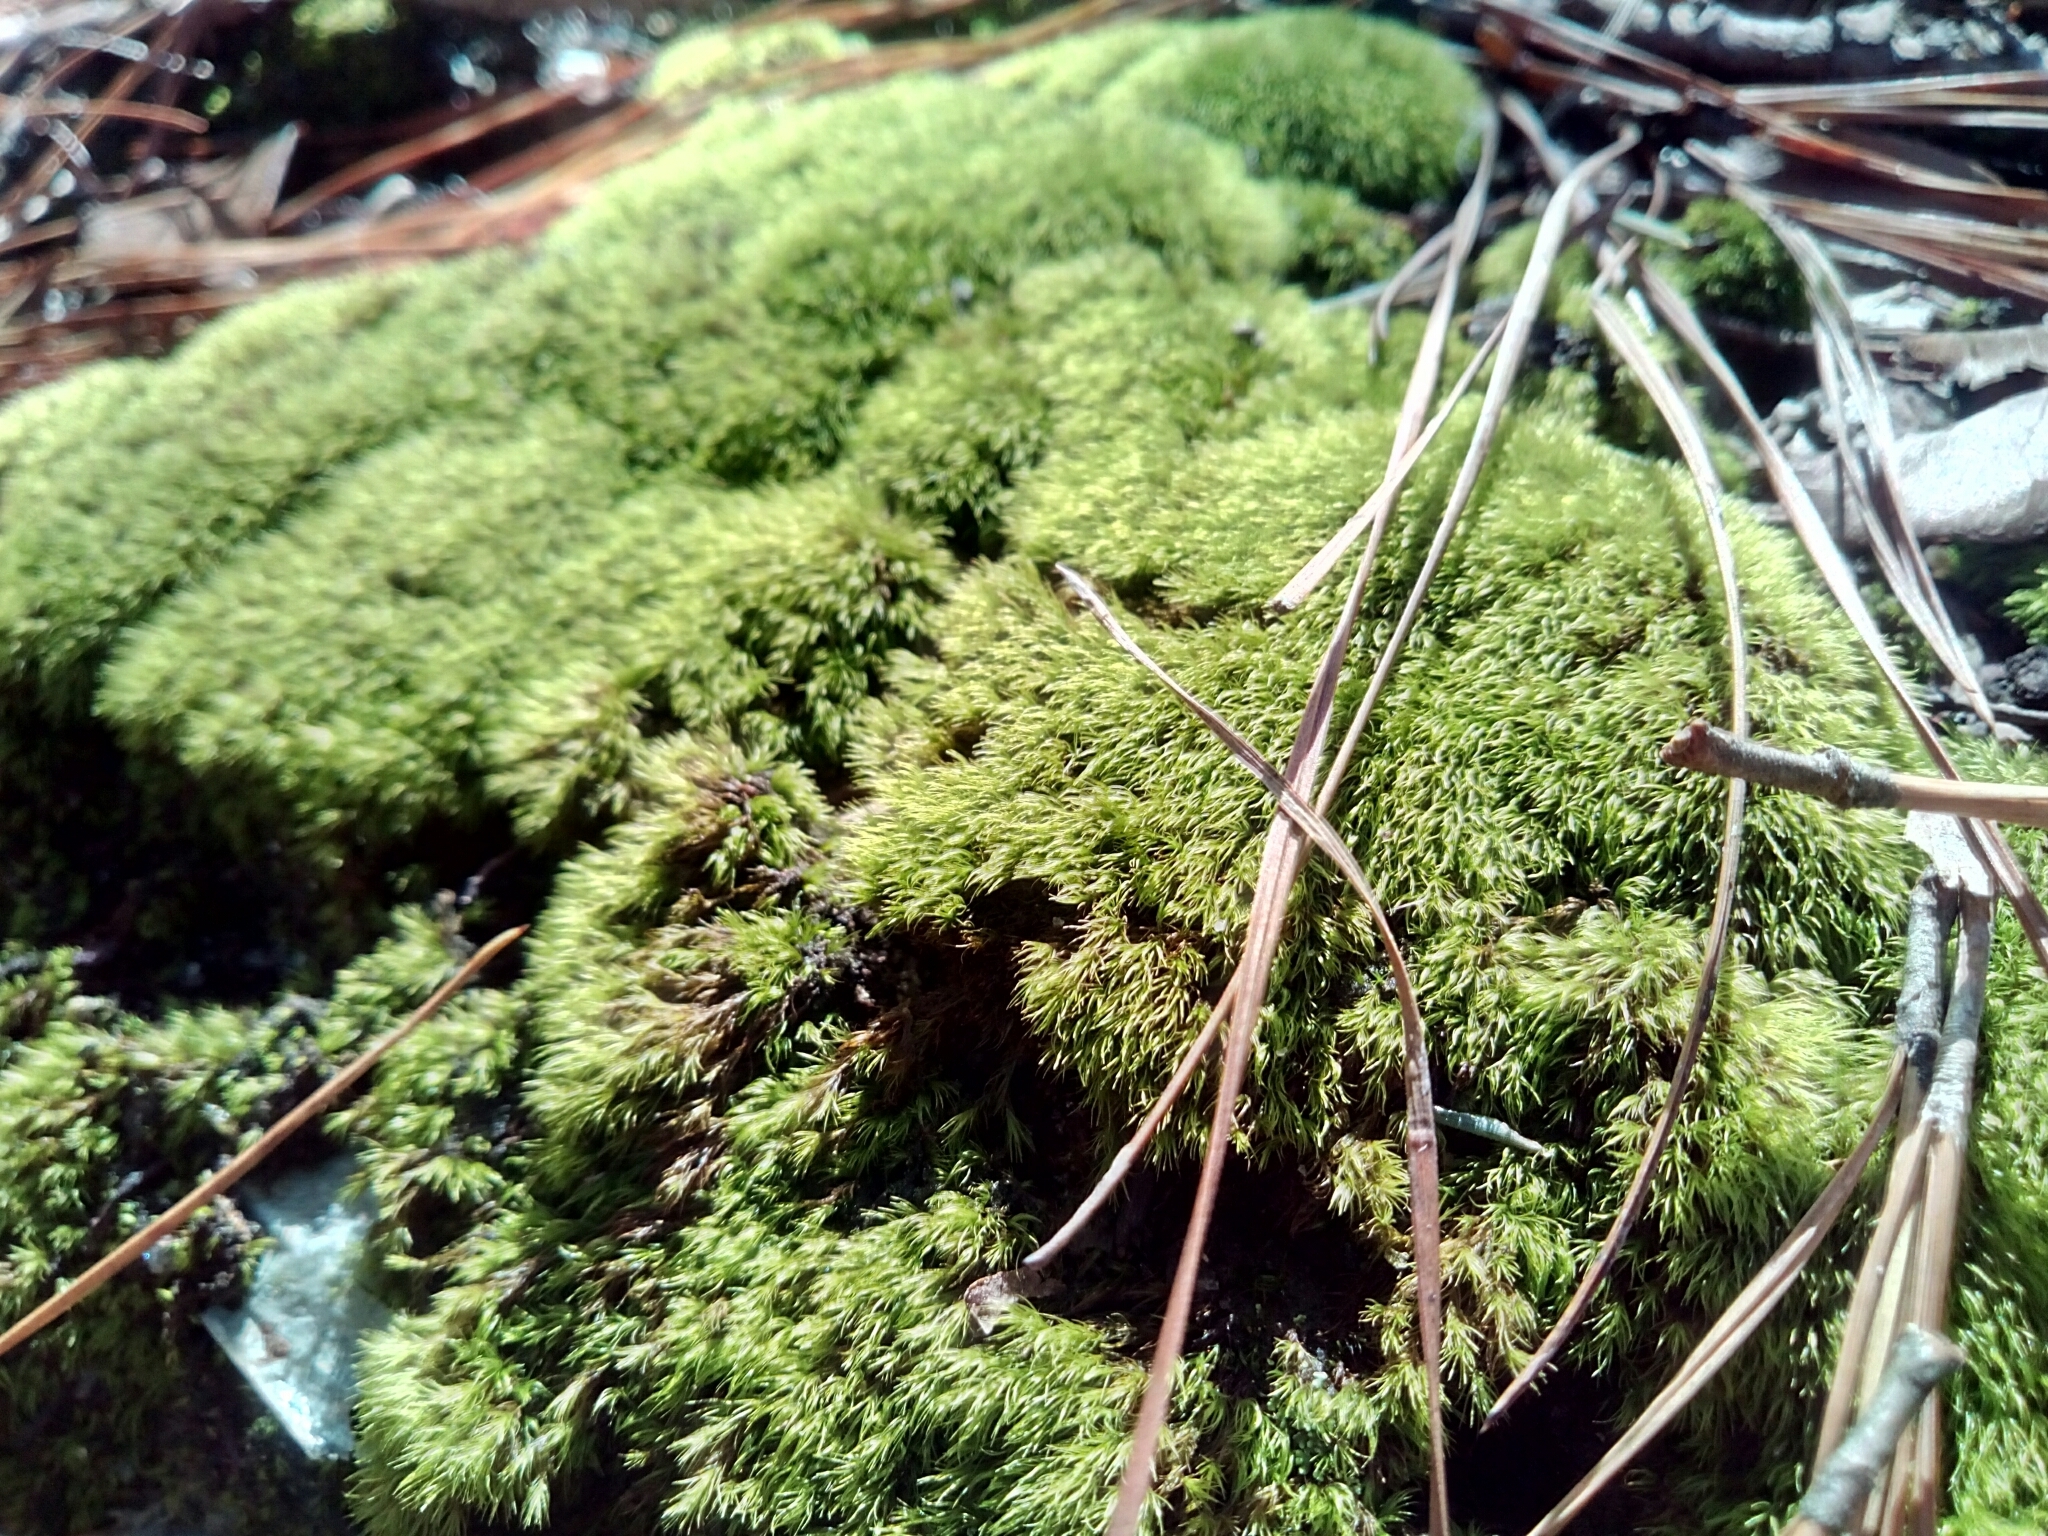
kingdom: Plantae
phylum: Bryophyta
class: Bryopsida
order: Dicranales
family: Leucobryaceae
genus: Leucobryum
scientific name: Leucobryum glaucum
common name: Large white-moss
